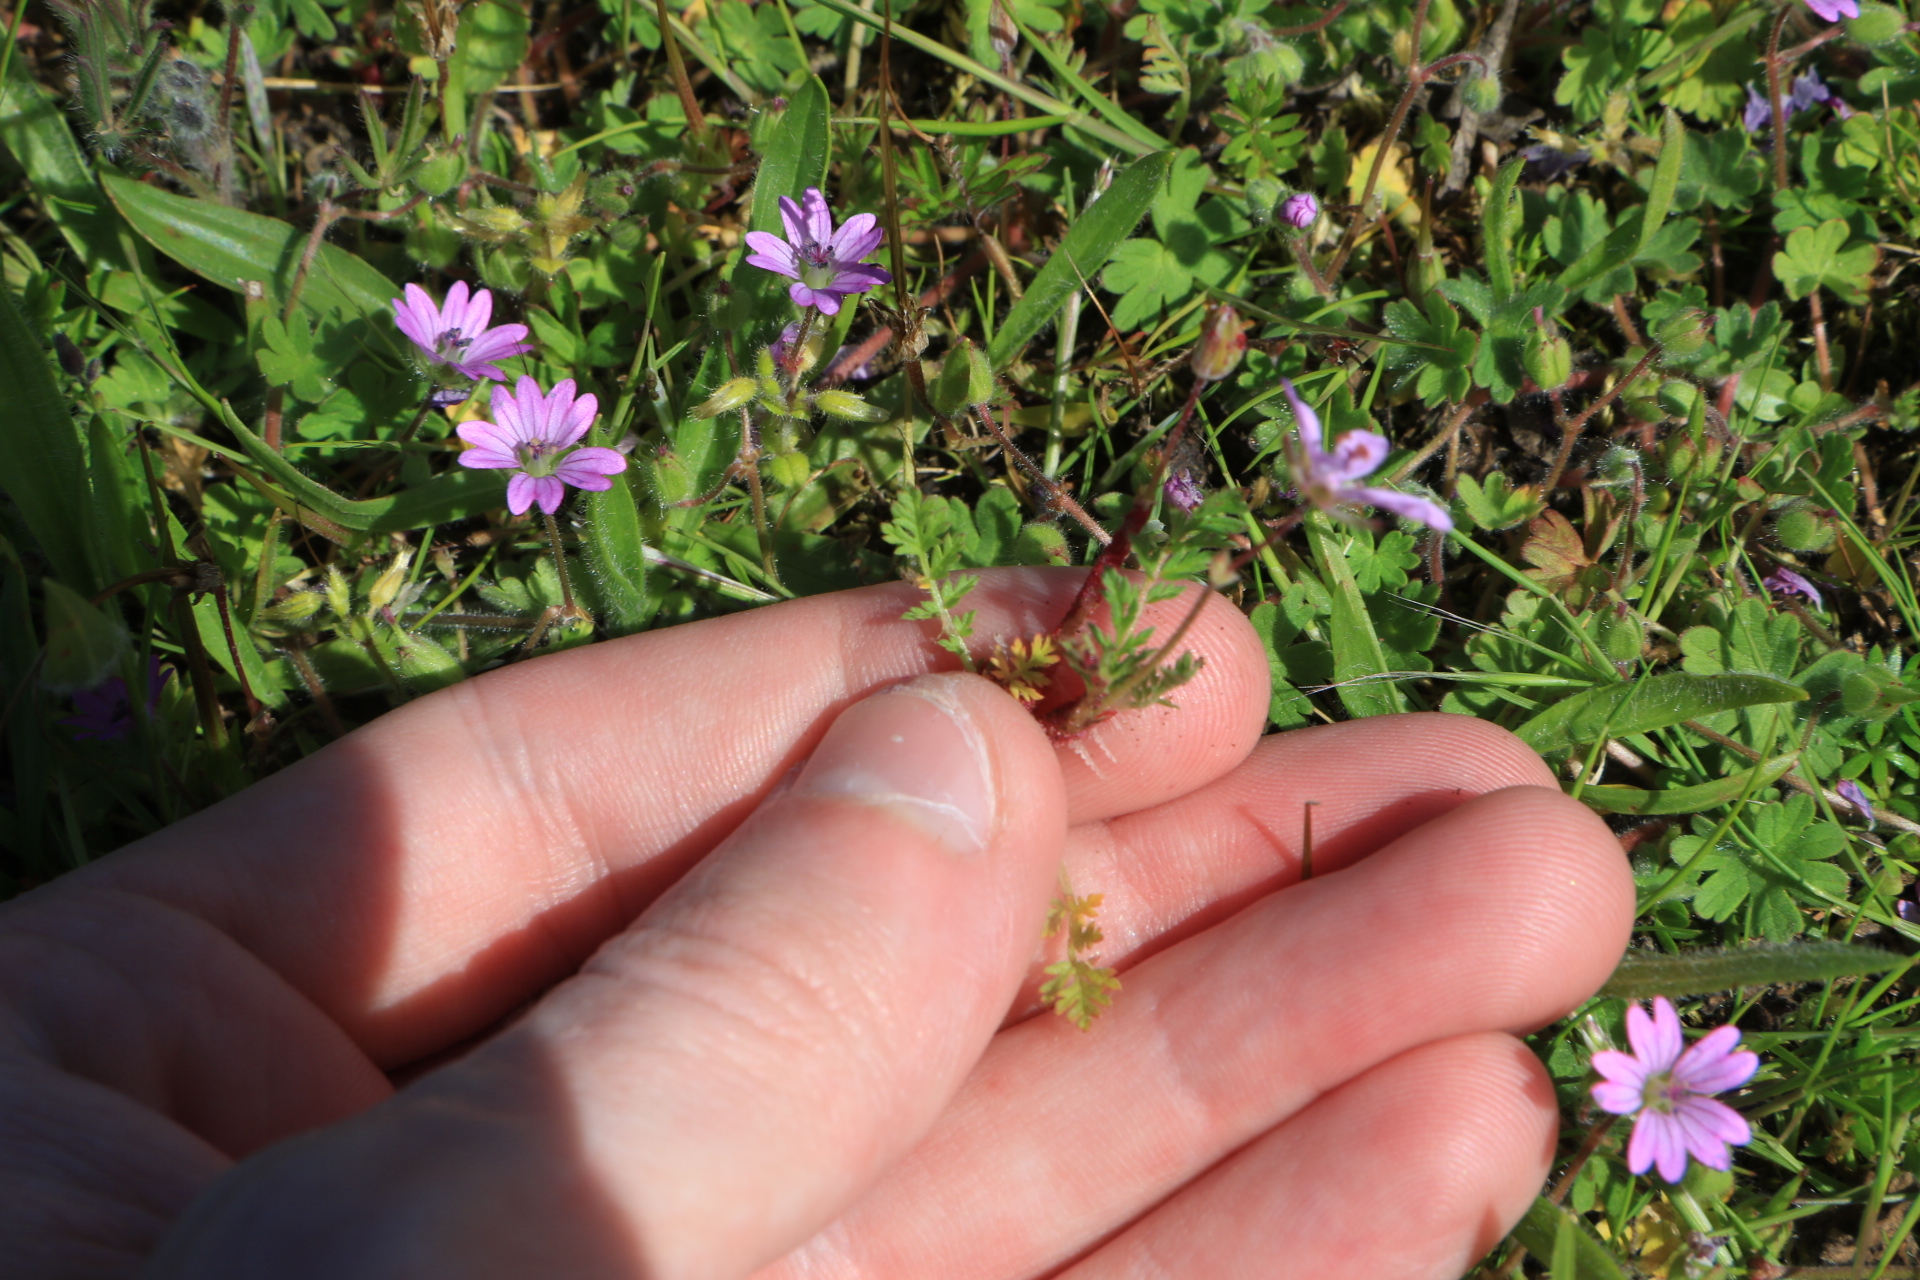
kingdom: Plantae
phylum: Tracheophyta
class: Magnoliopsida
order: Geraniales
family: Geraniaceae
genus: Erodium
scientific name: Erodium cicutarium
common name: Common stork's-bill
